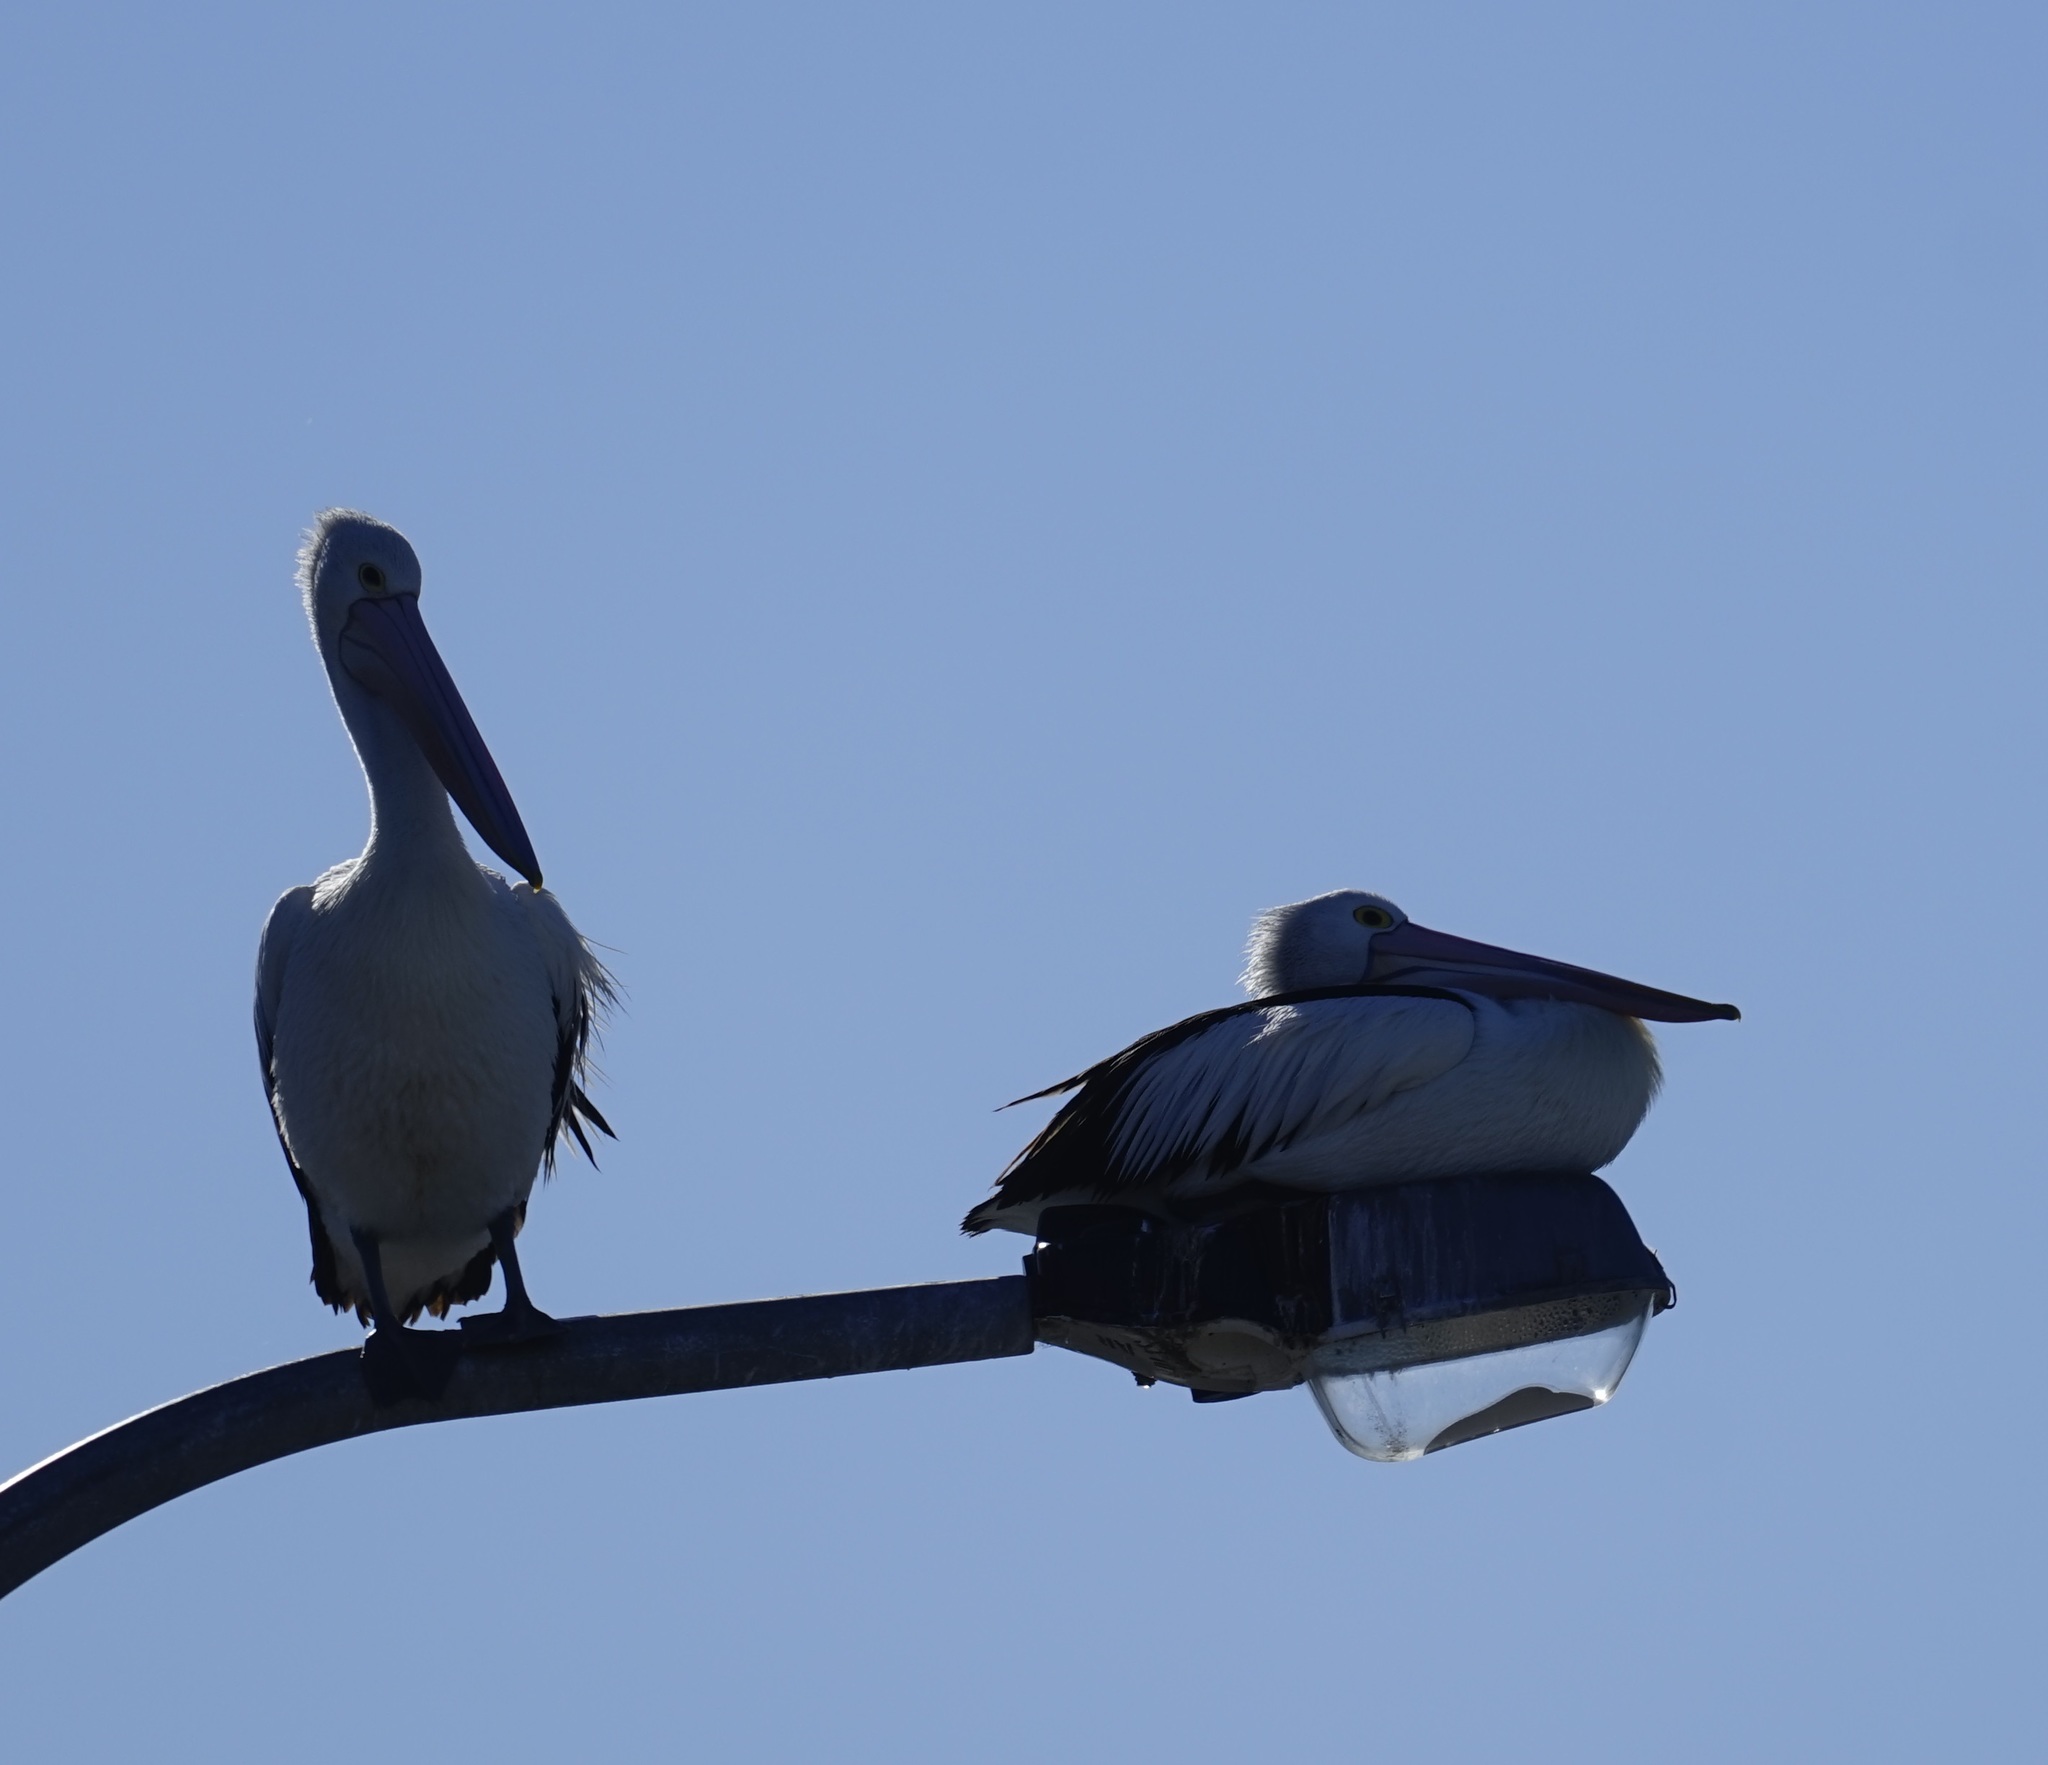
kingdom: Animalia
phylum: Chordata
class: Aves
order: Pelecaniformes
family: Pelecanidae
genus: Pelecanus
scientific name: Pelecanus conspicillatus
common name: Australian pelican
